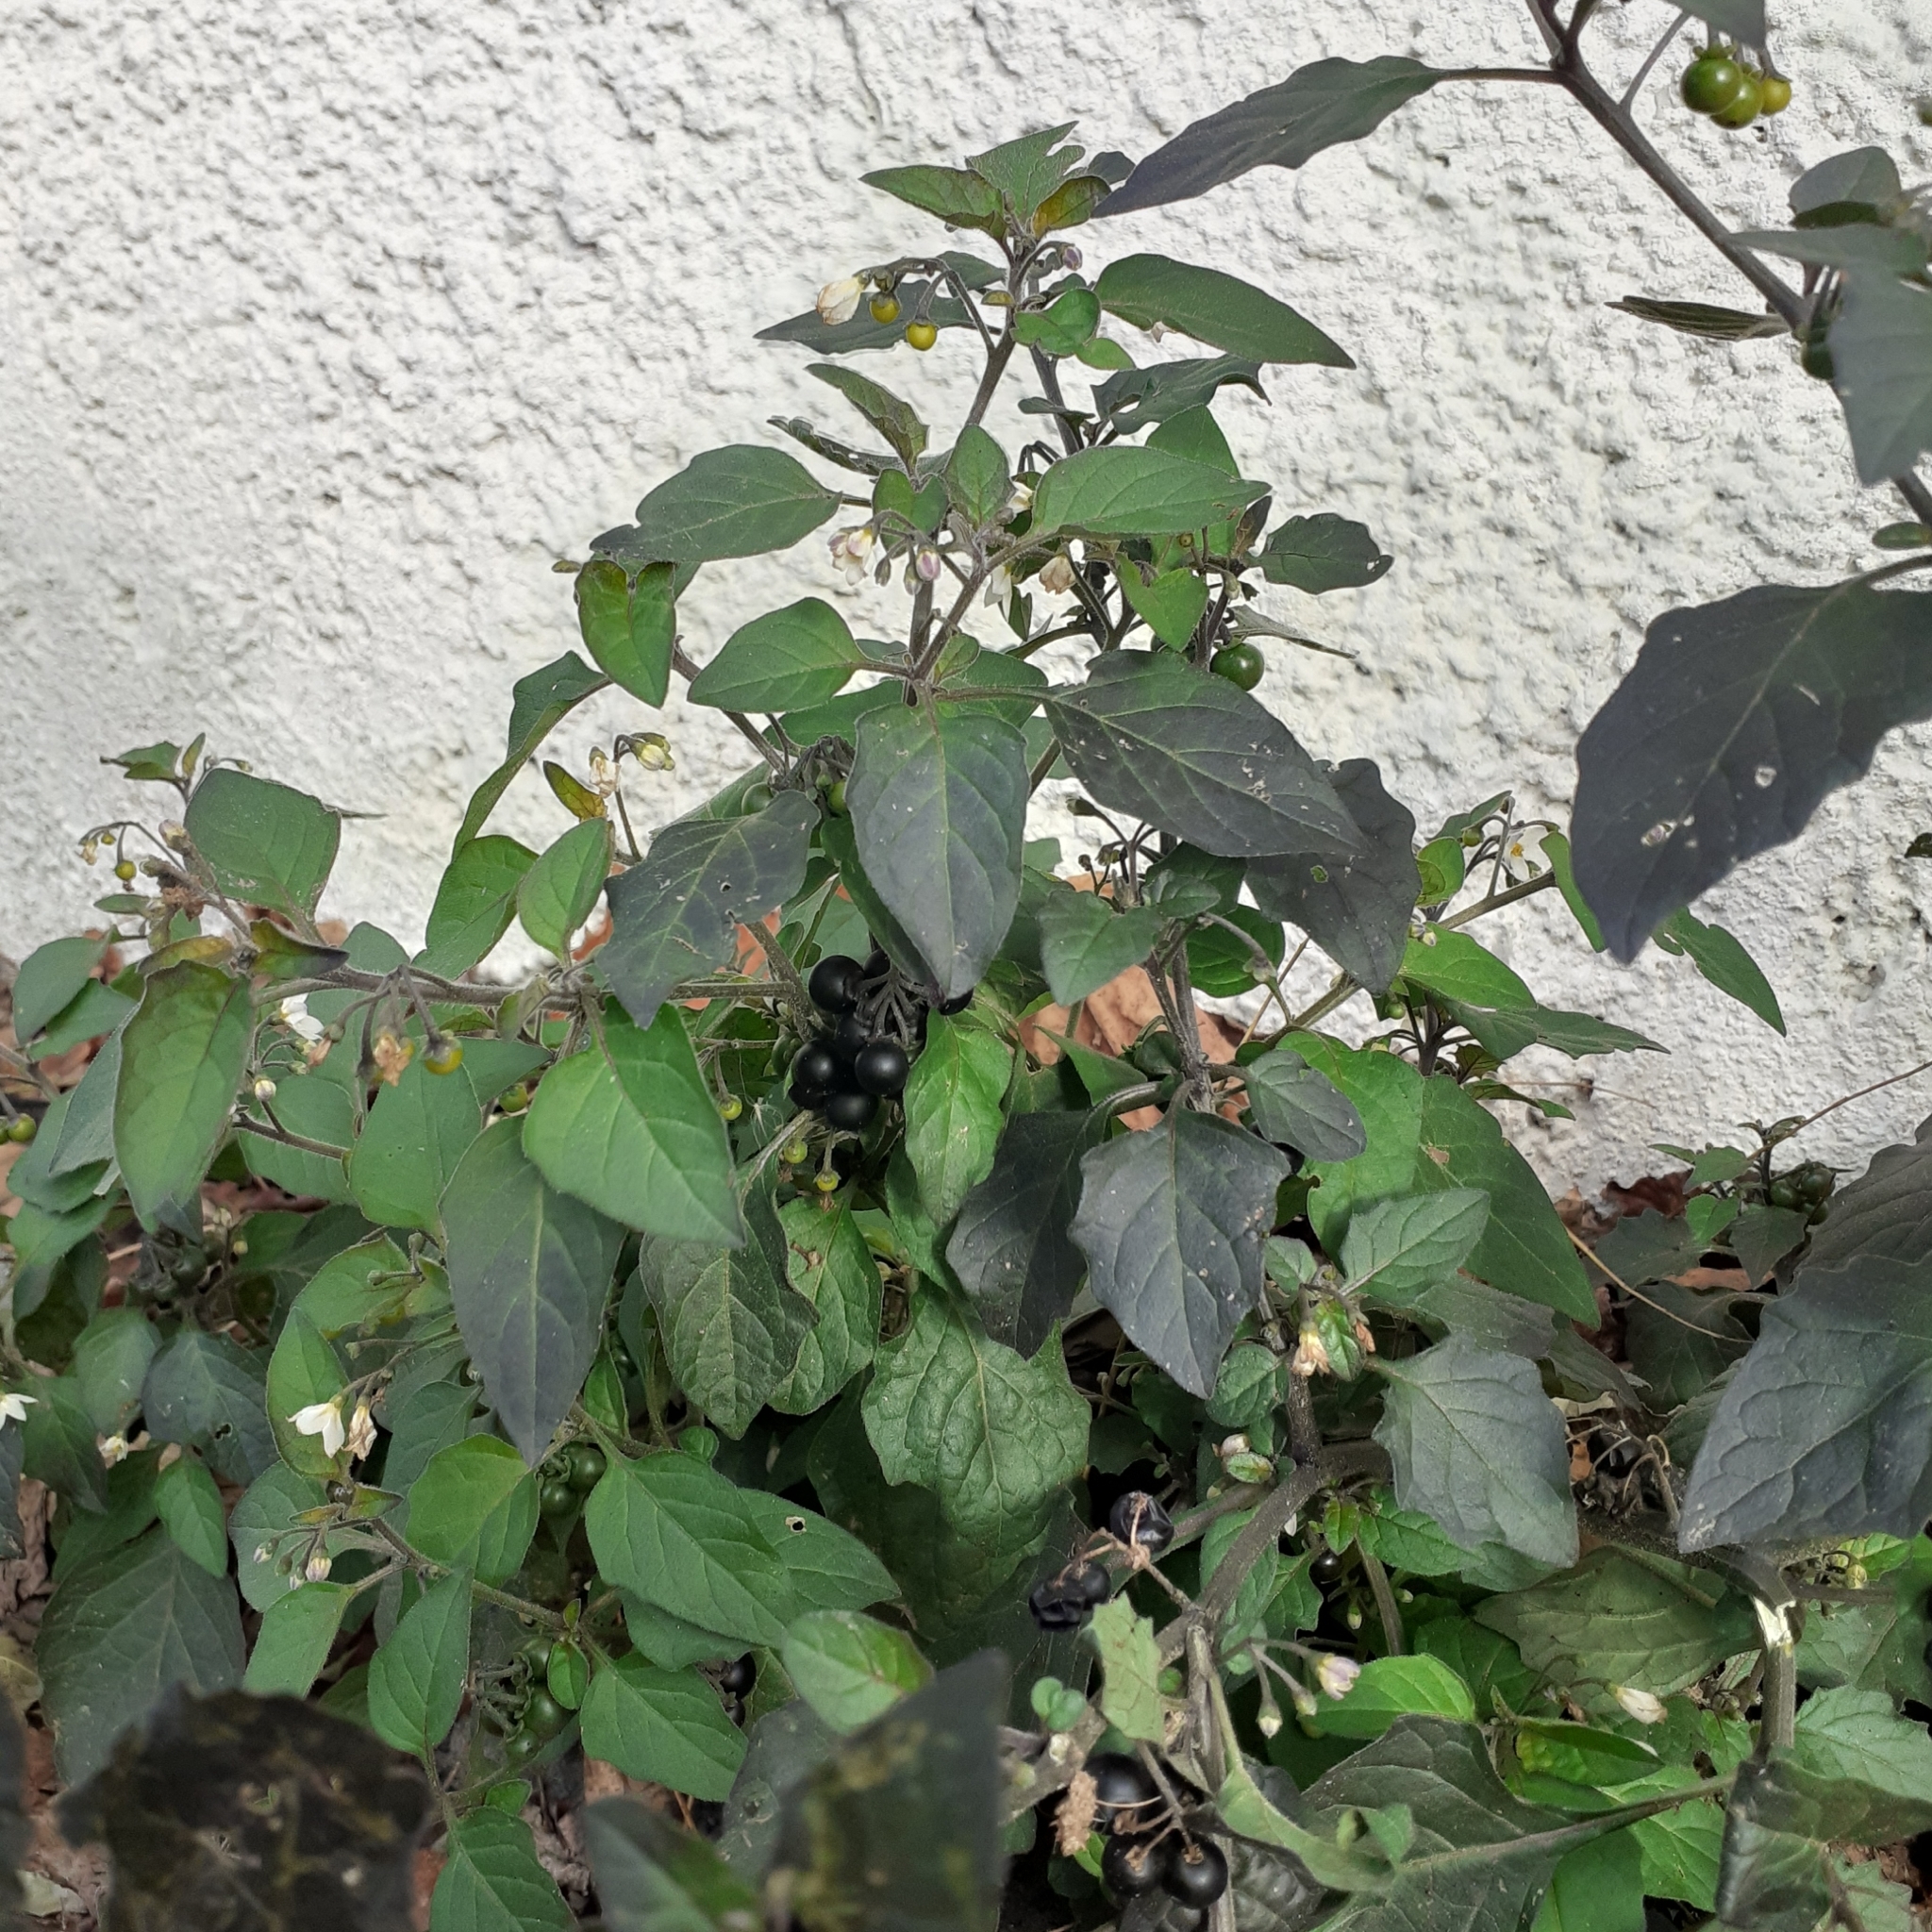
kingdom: Plantae
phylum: Tracheophyta
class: Magnoliopsida
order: Solanales
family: Solanaceae
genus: Solanum
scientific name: Solanum nigrum
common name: Black nightshade
